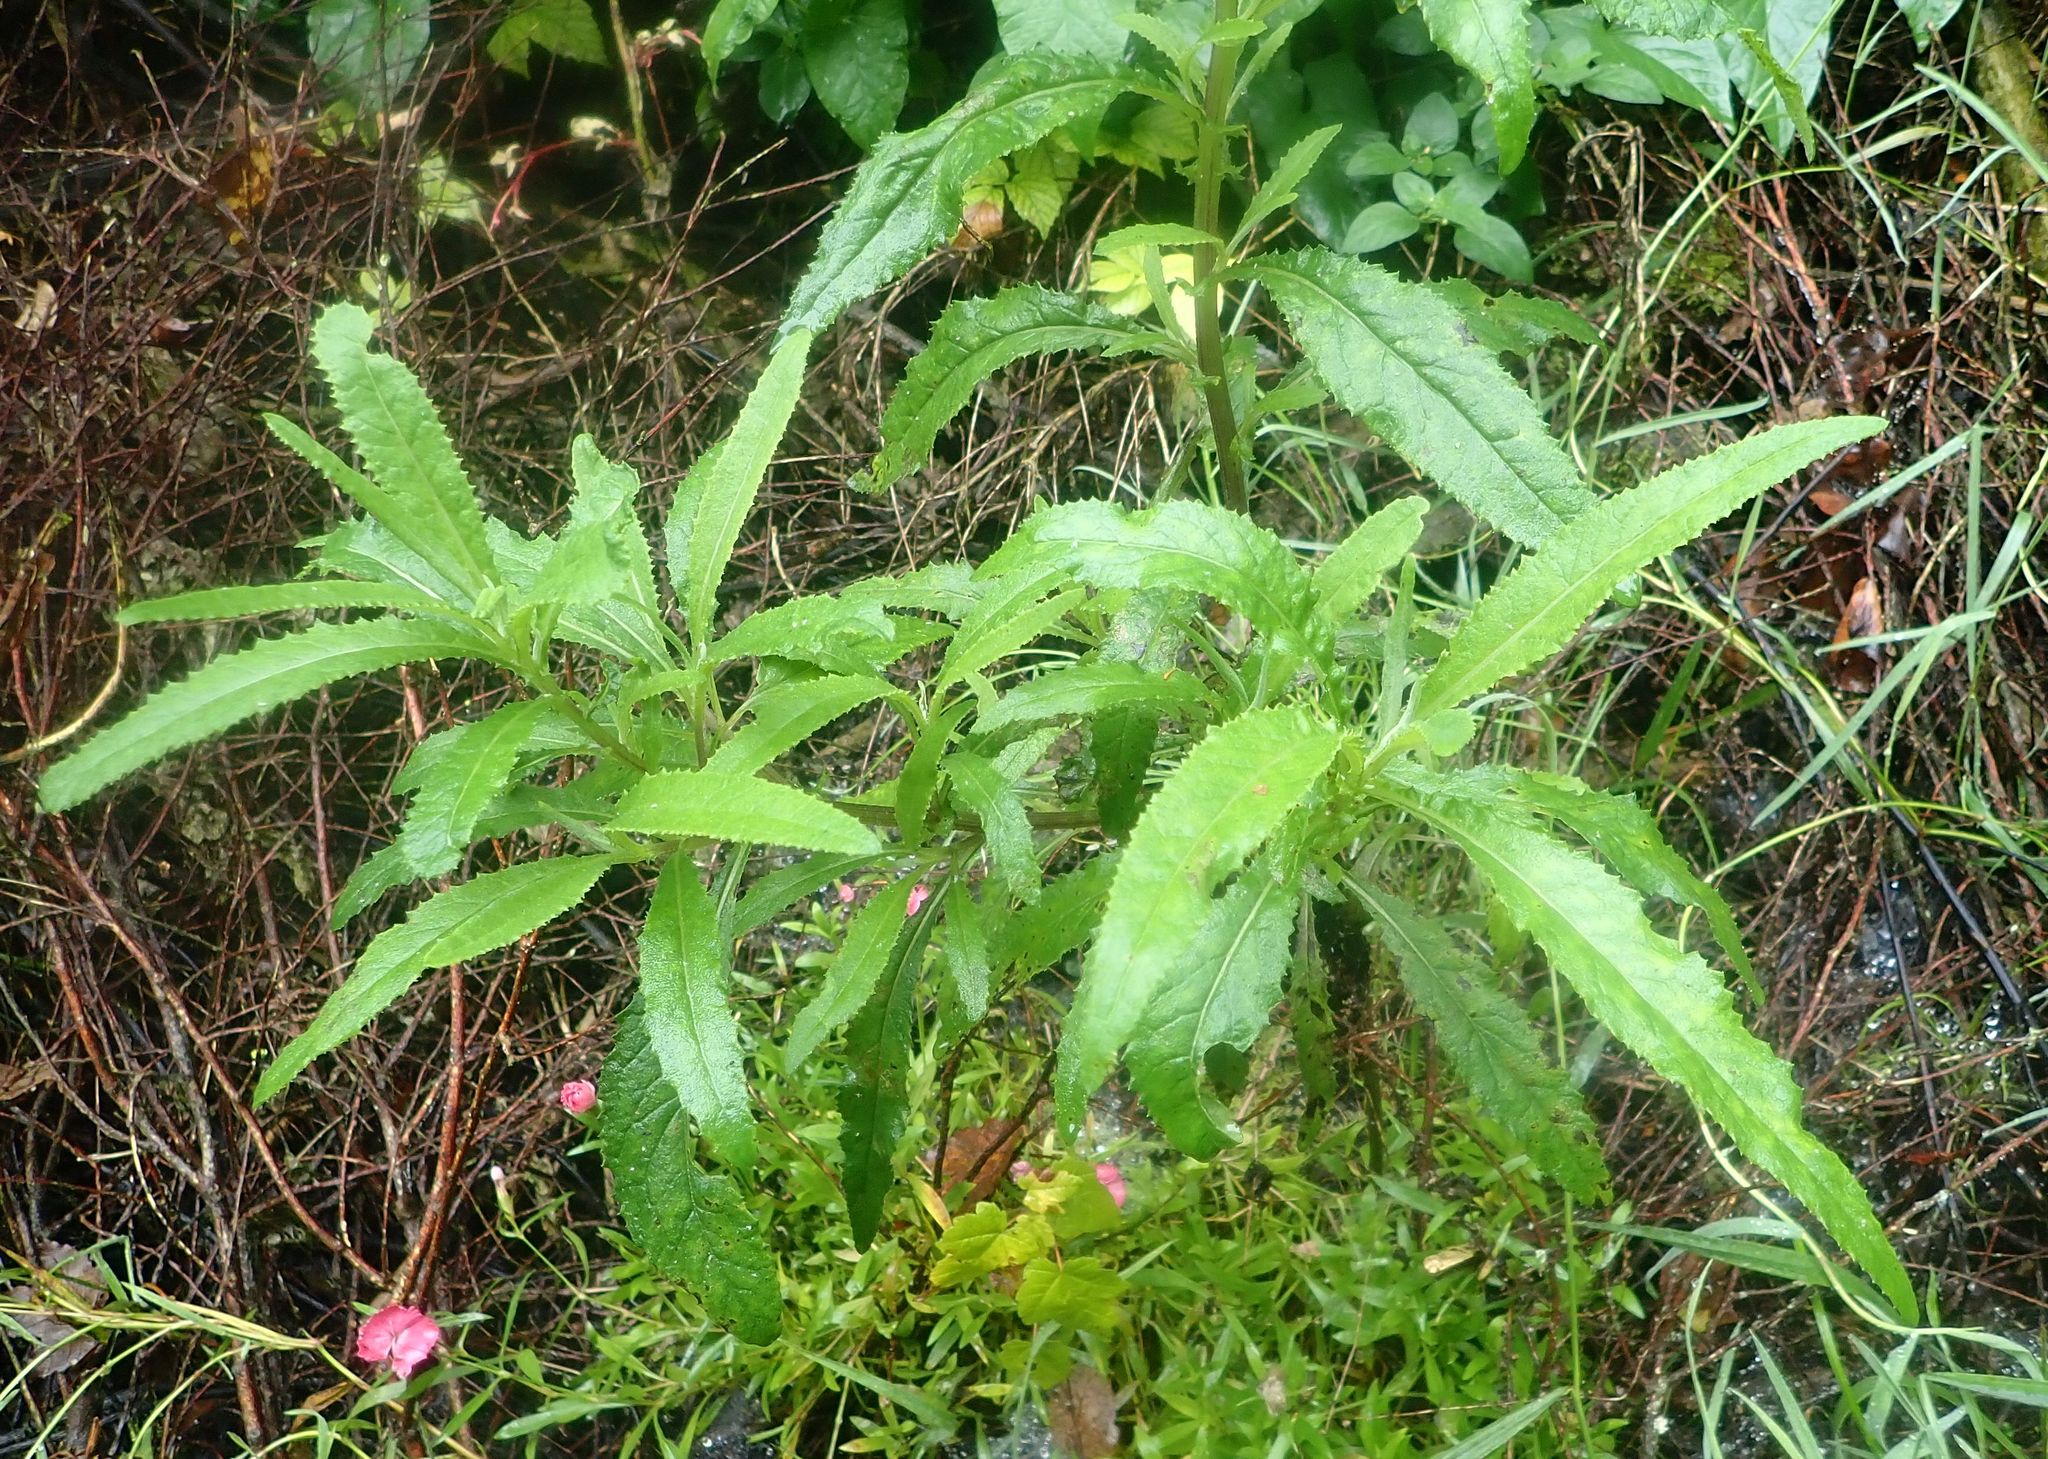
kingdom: Plantae
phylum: Tracheophyta
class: Magnoliopsida
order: Asterales
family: Asteraceae
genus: Senecio
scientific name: Senecio minimus
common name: Toothed fireweed
